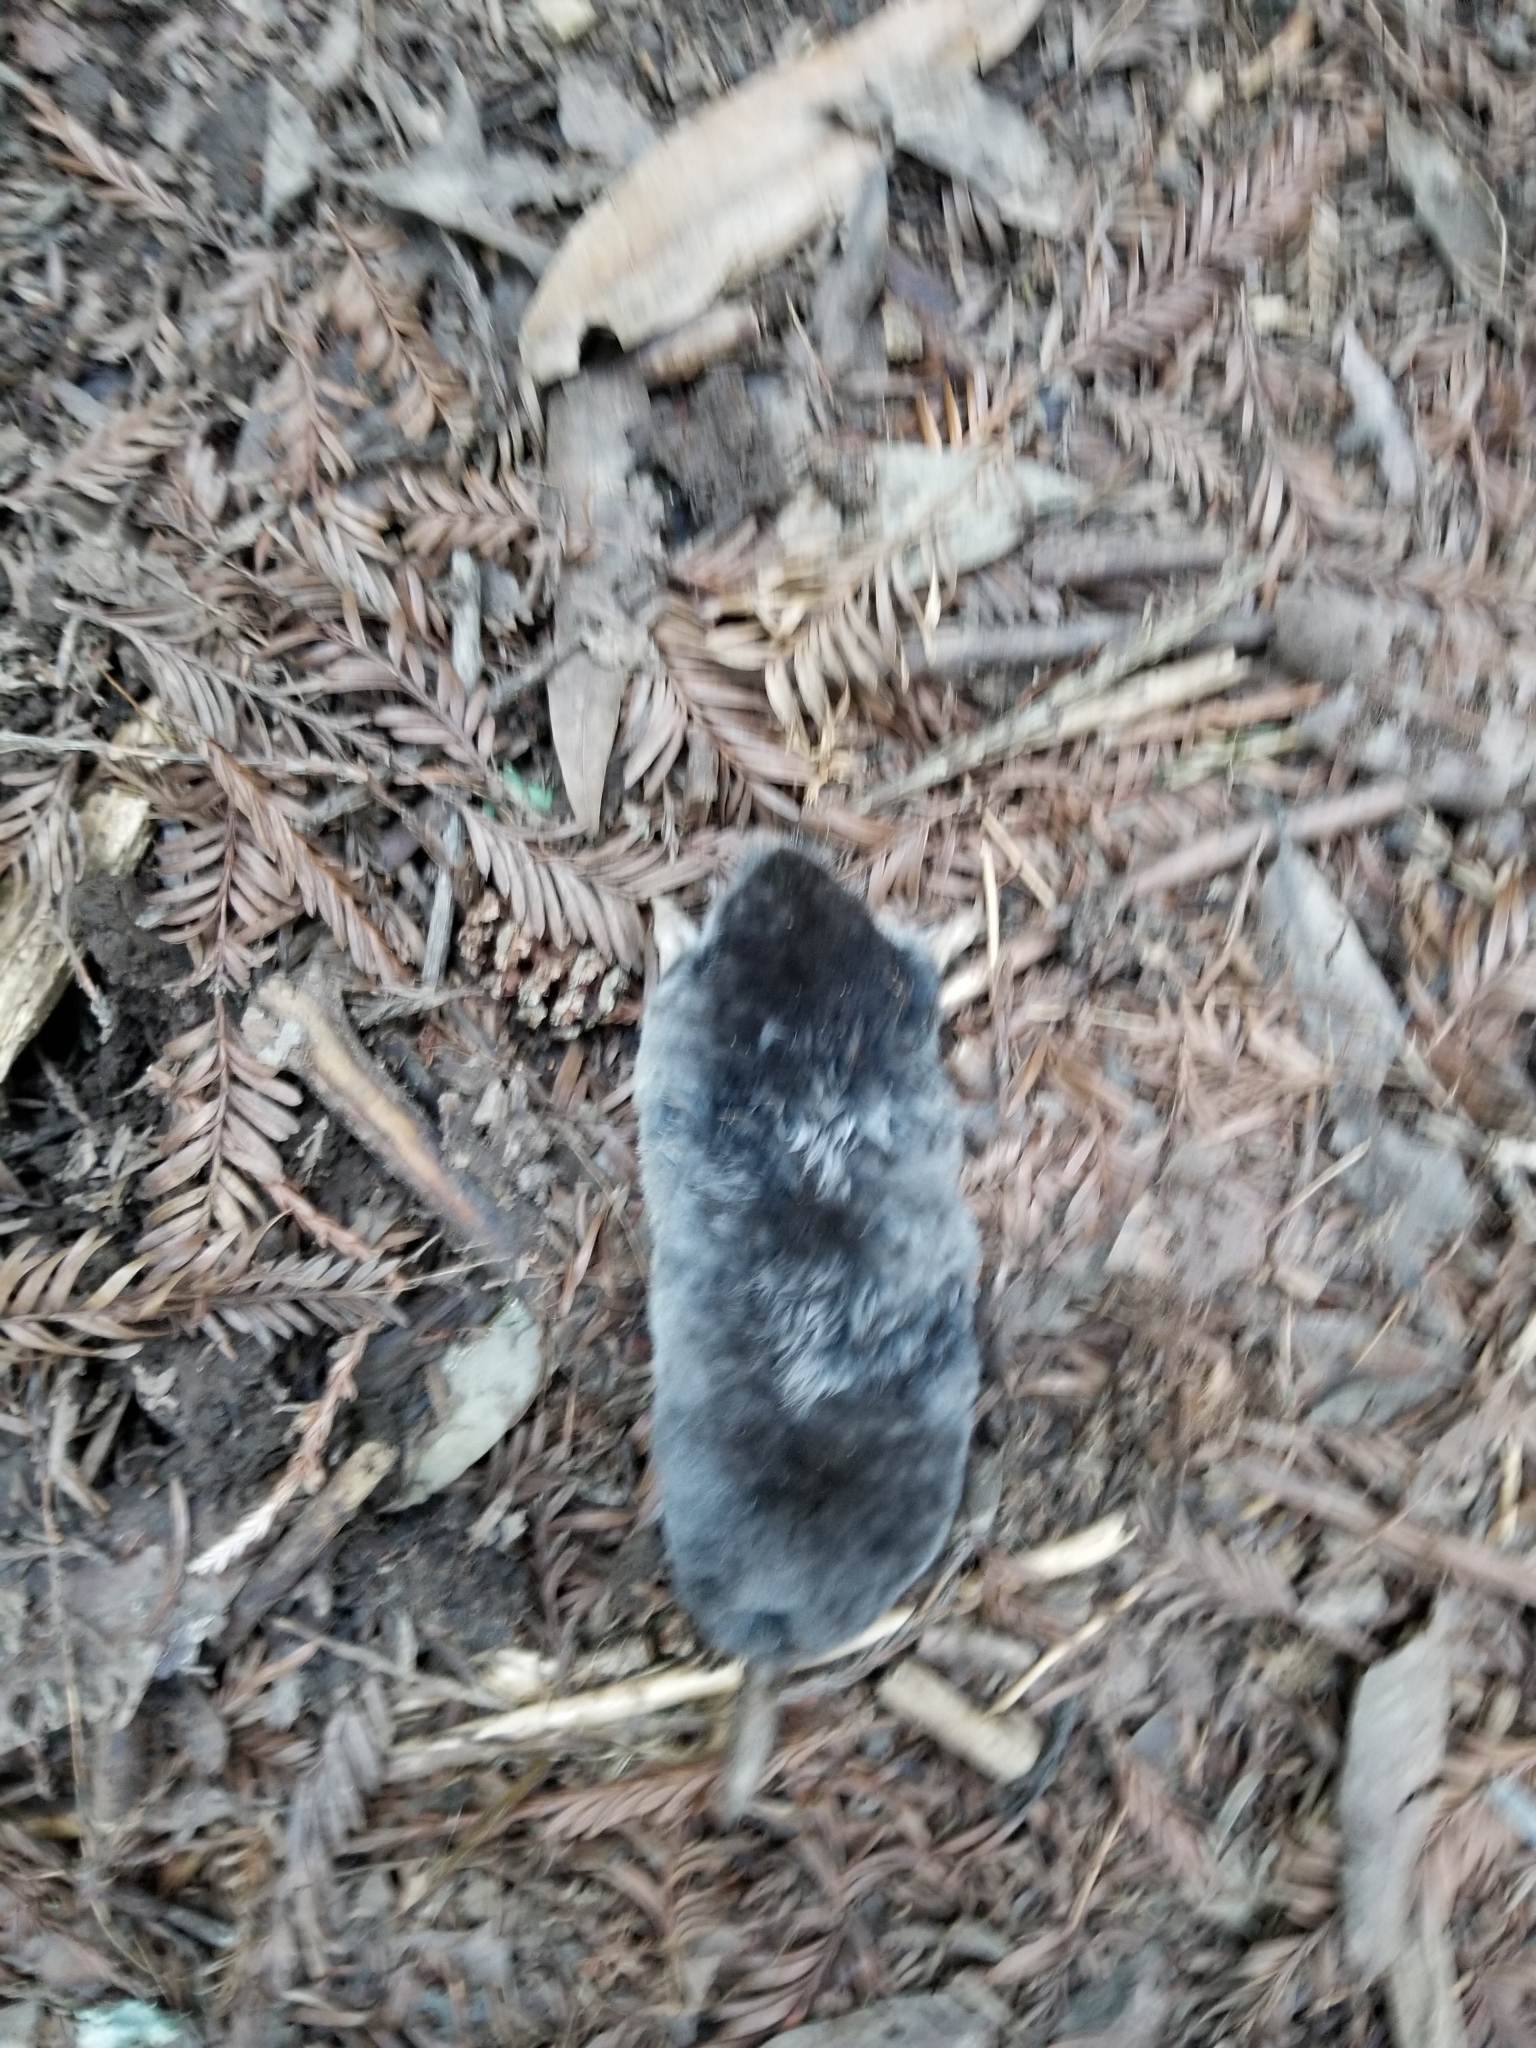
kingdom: Animalia
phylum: Chordata
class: Mammalia
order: Soricomorpha
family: Talpidae
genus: Scapanus
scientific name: Scapanus latimanus
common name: Broad-footed mole
